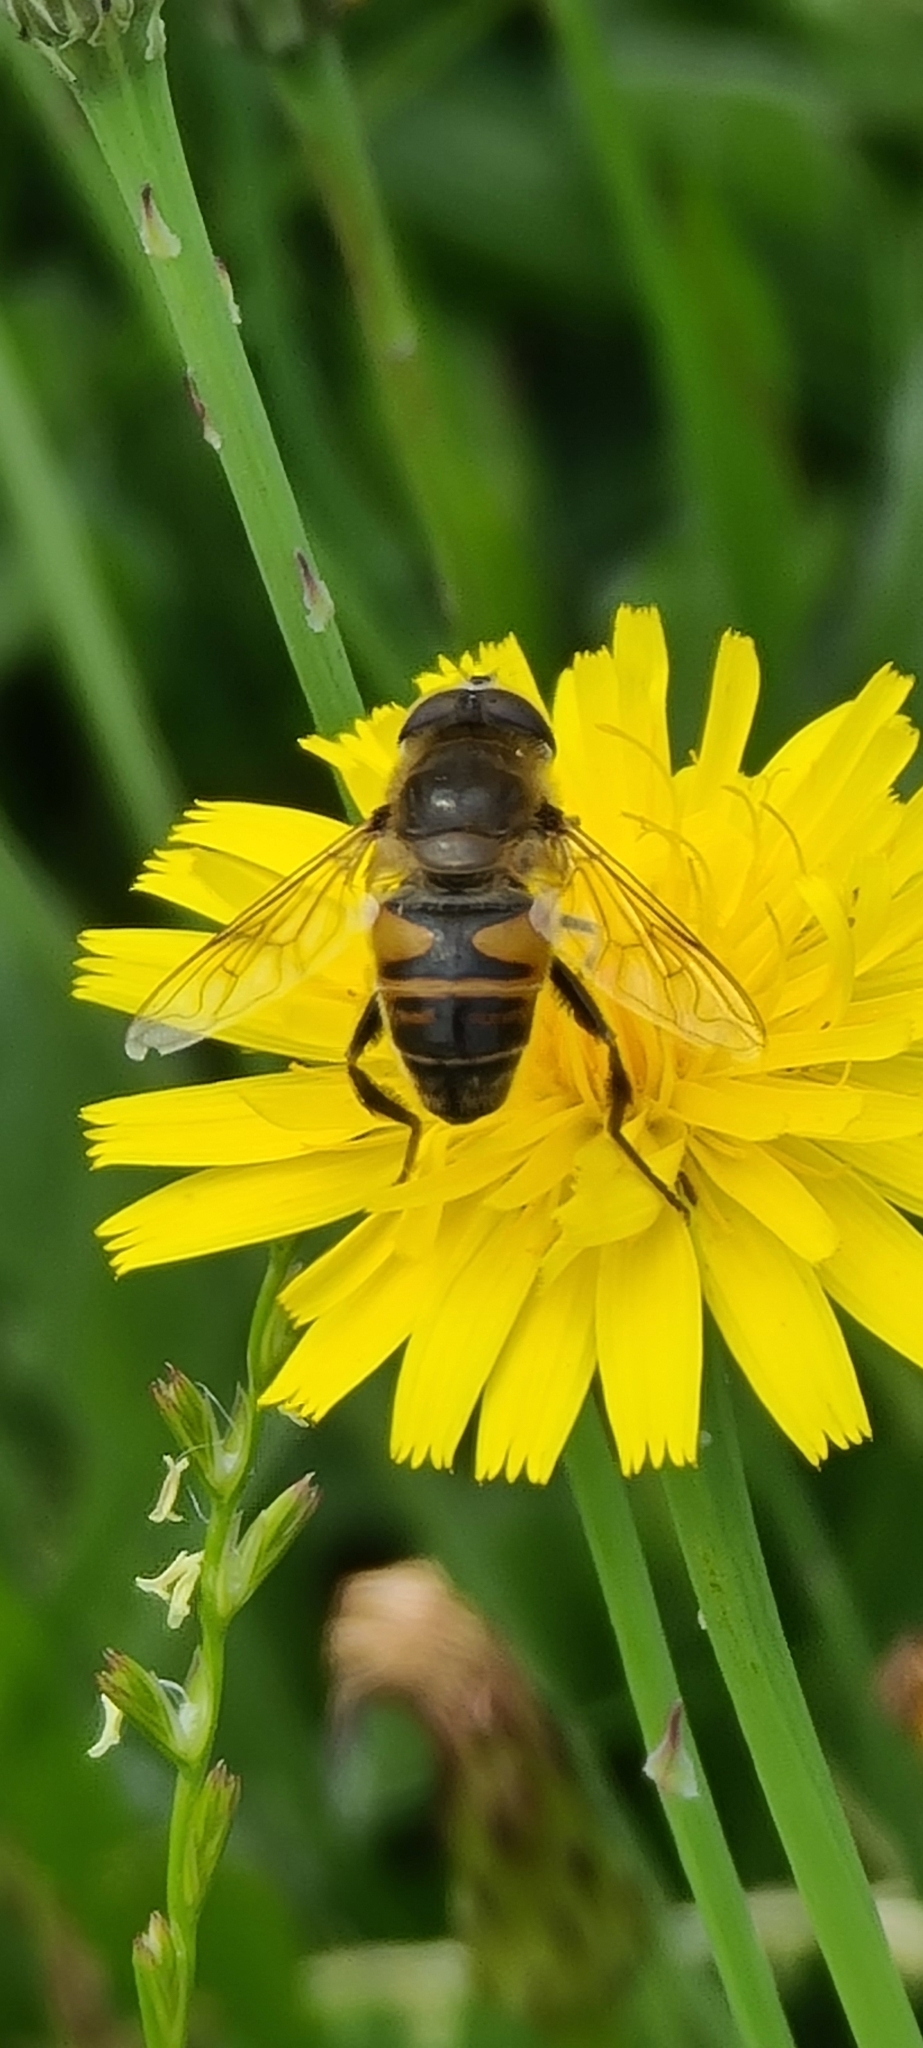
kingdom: Animalia
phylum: Arthropoda
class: Insecta
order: Diptera
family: Syrphidae
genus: Eristalis
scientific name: Eristalis tenax
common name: Drone fly
